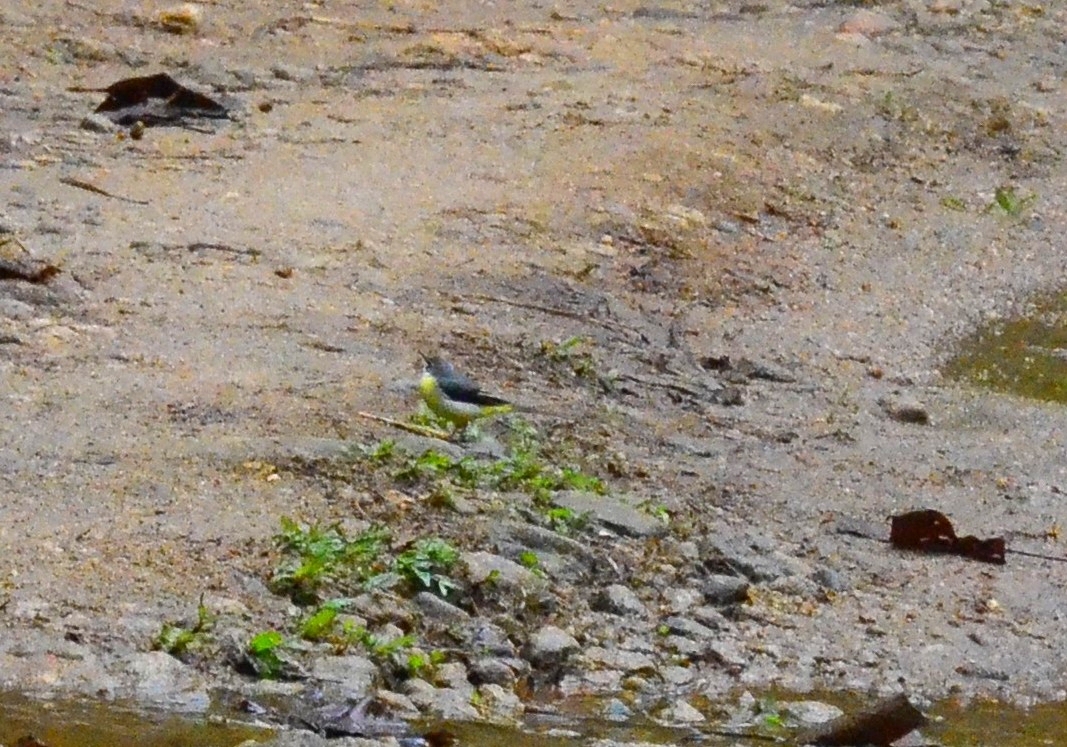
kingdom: Animalia
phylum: Chordata
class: Aves
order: Passeriformes
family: Motacillidae
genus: Motacilla
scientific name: Motacilla cinerea
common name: Grey wagtail
